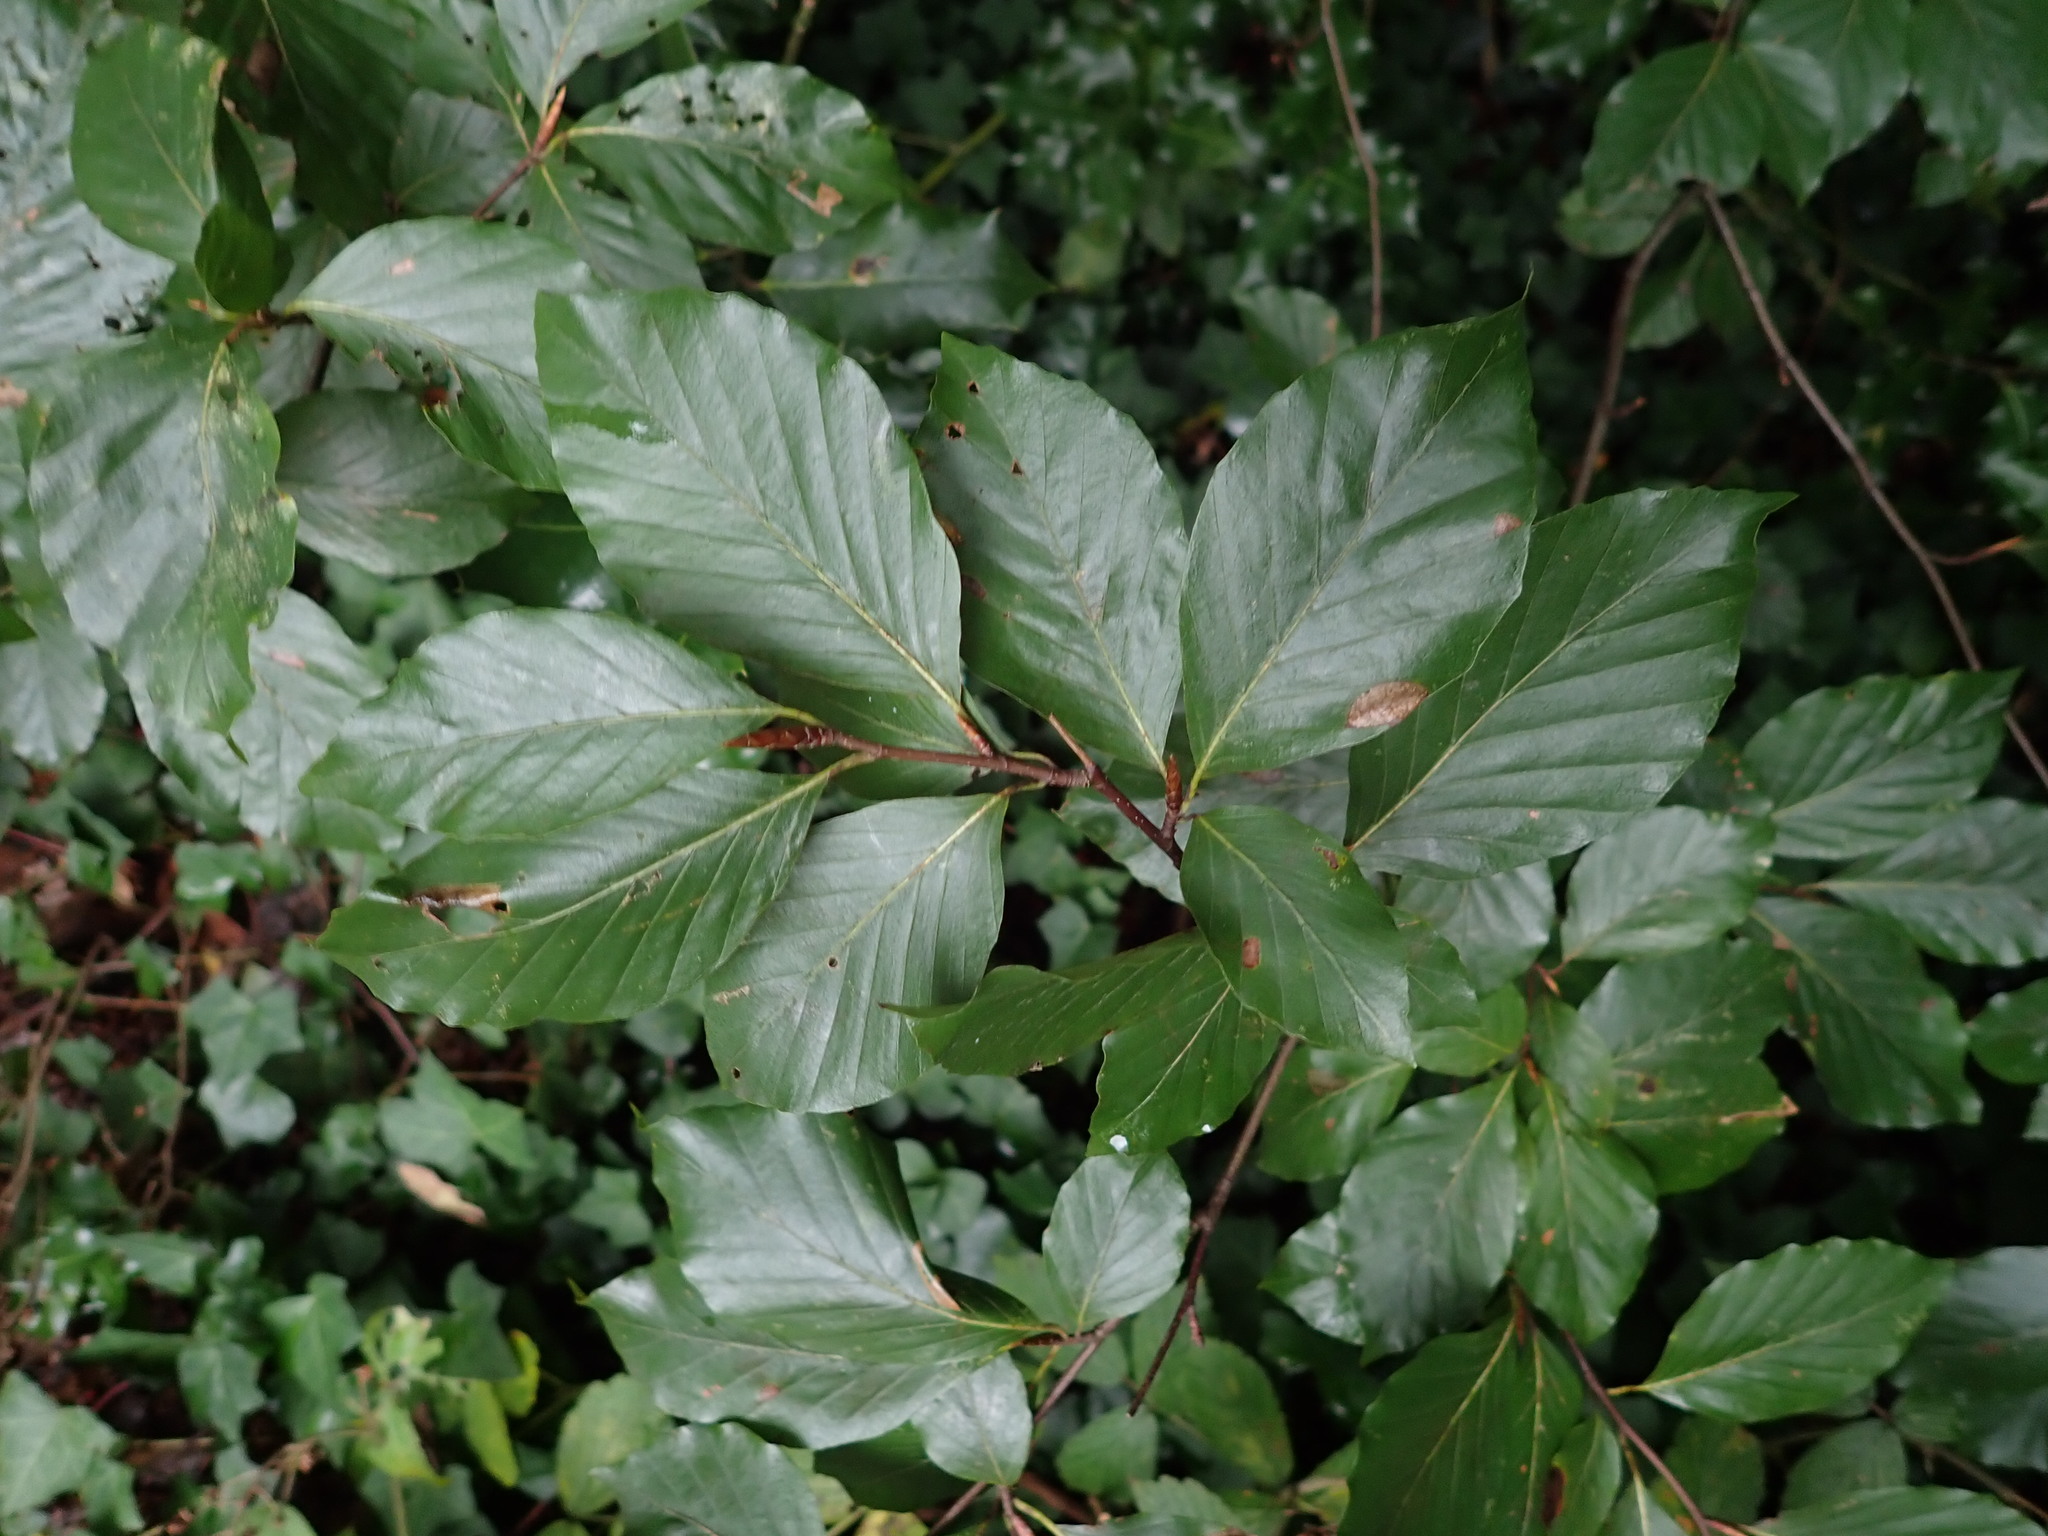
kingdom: Plantae
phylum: Tracheophyta
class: Magnoliopsida
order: Fagales
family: Fagaceae
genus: Fagus
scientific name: Fagus sylvatica
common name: Beech
